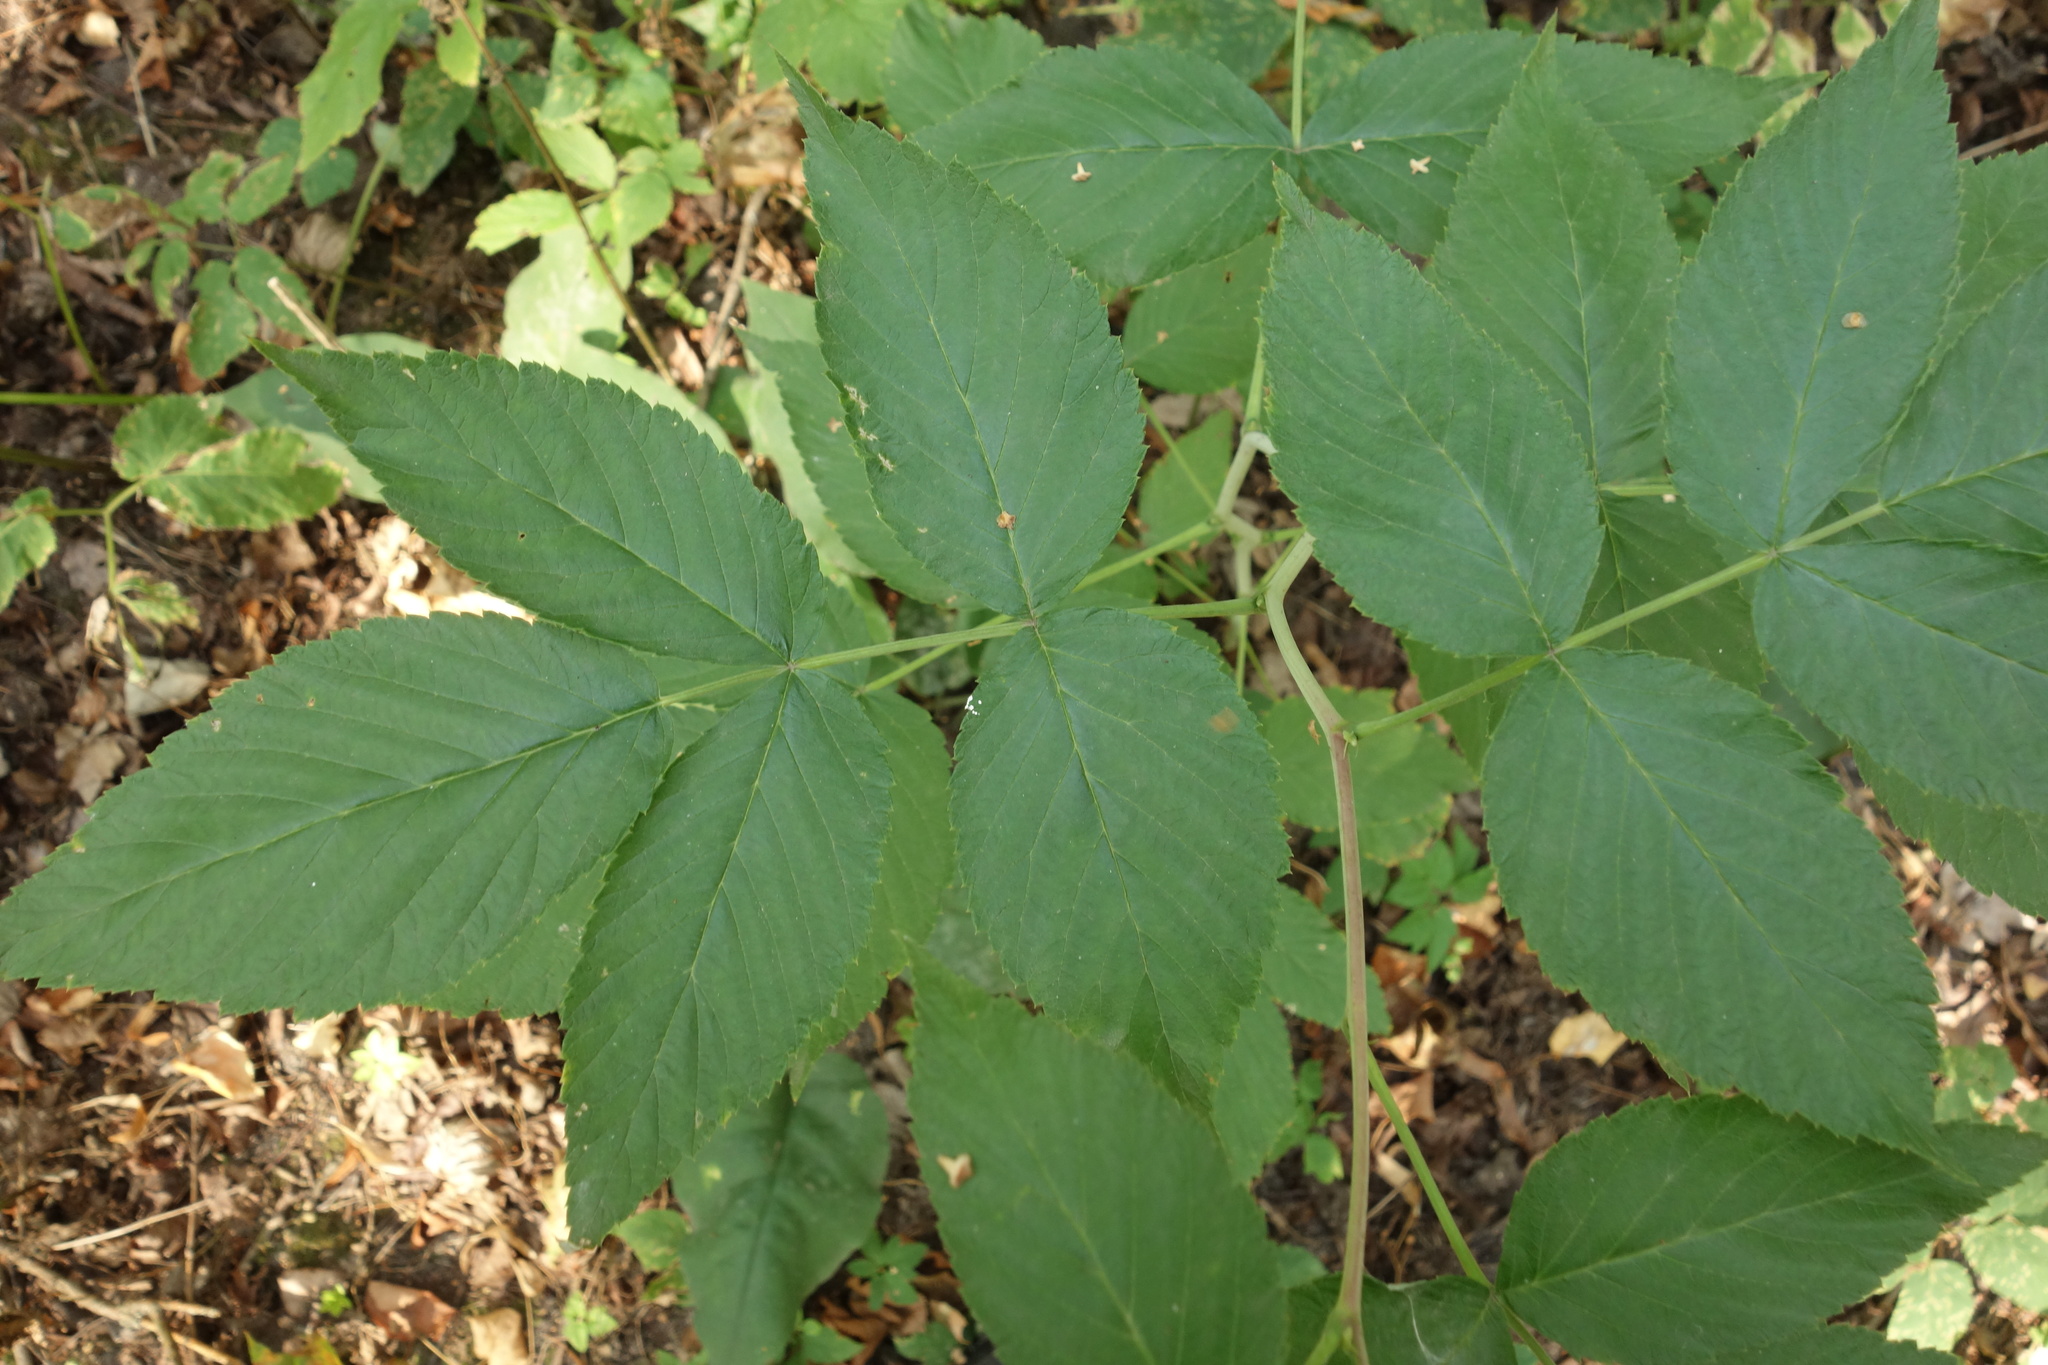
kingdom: Plantae
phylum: Tracheophyta
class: Magnoliopsida
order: Rosales
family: Rosaceae
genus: Rubus
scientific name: Rubus idaeus
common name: Raspberry
